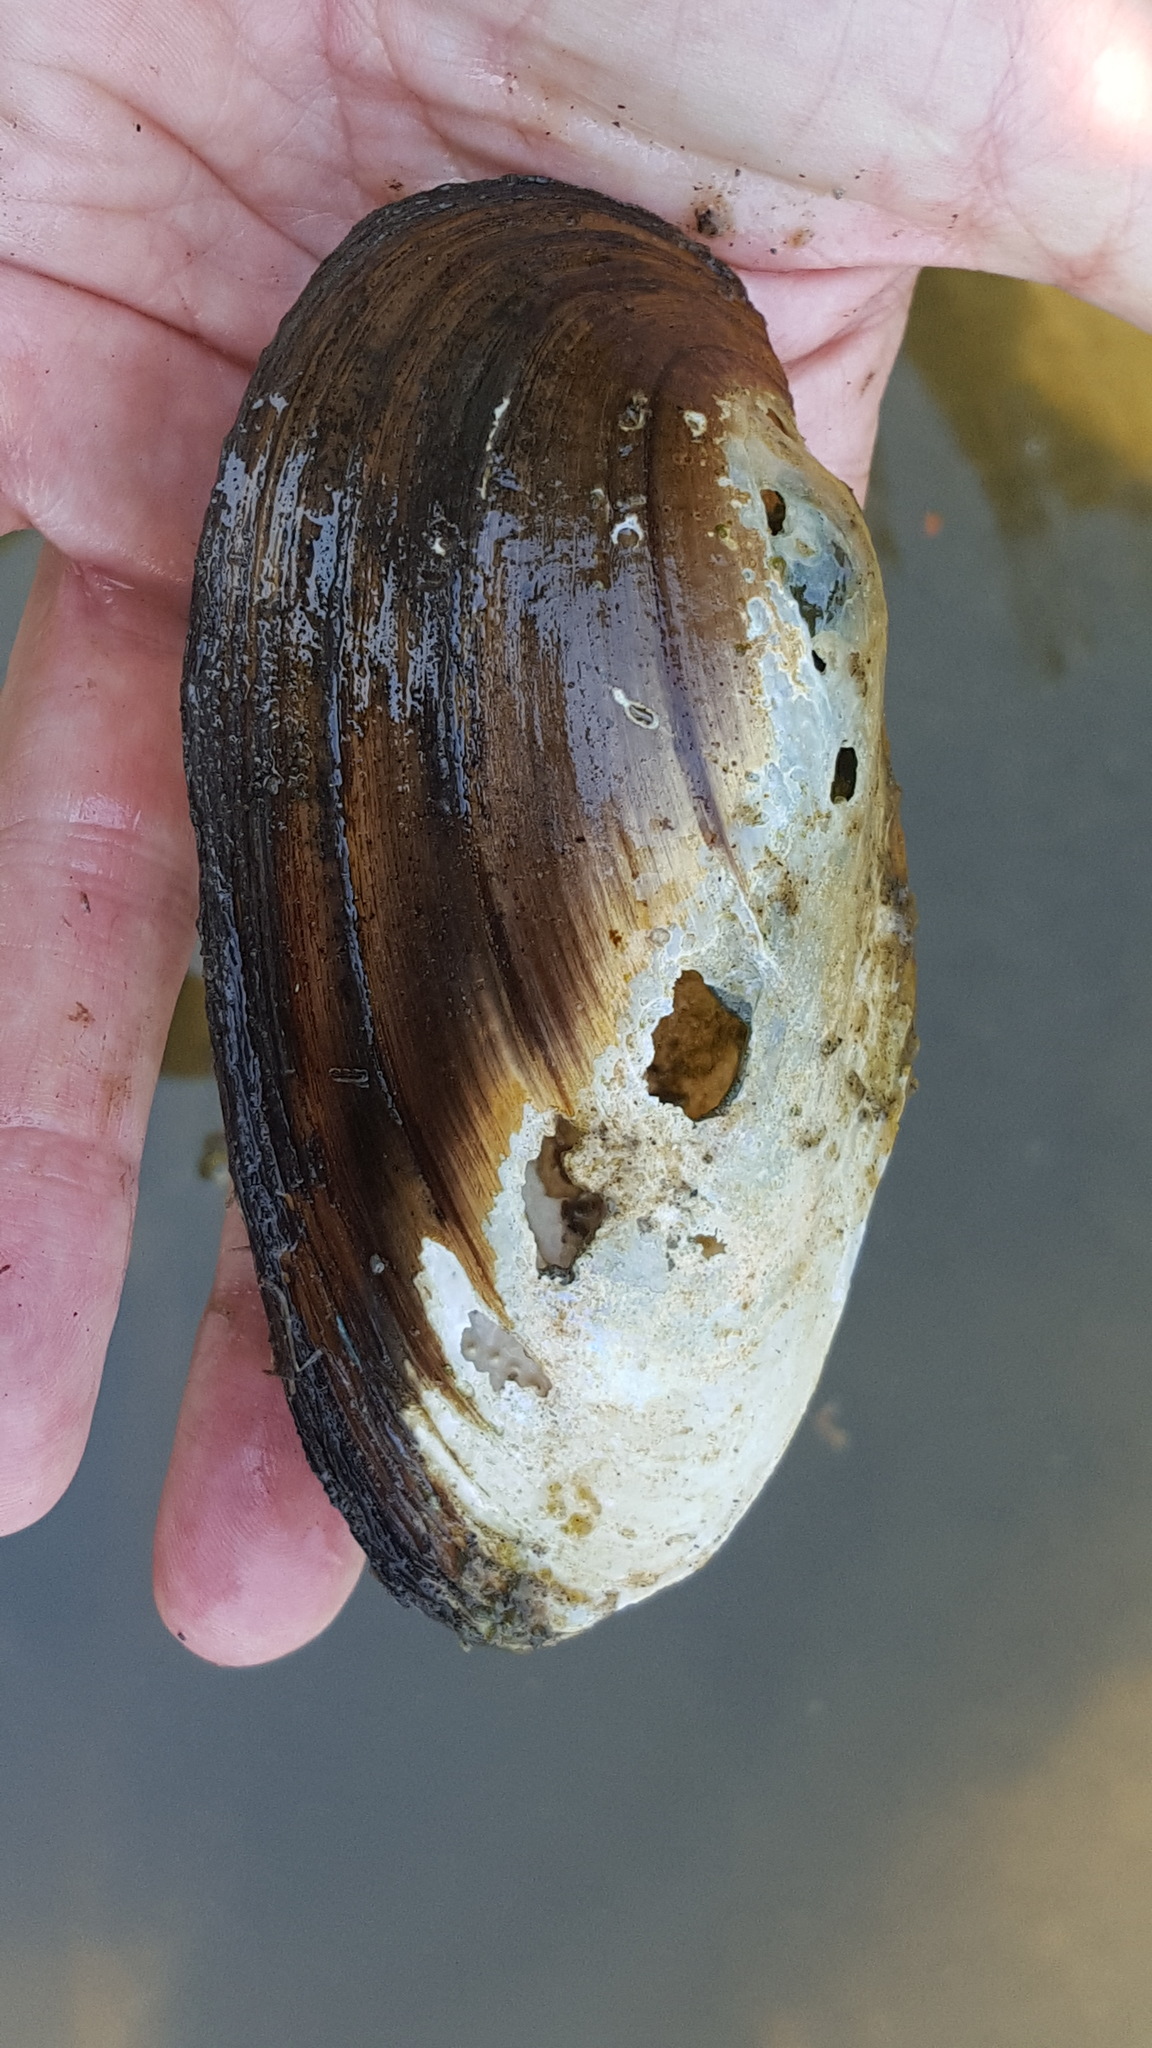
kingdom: Animalia
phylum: Mollusca
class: Bivalvia
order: Unionida
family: Unionidae
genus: Pyganodon
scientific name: Pyganodon lacustris
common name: Lake floater
